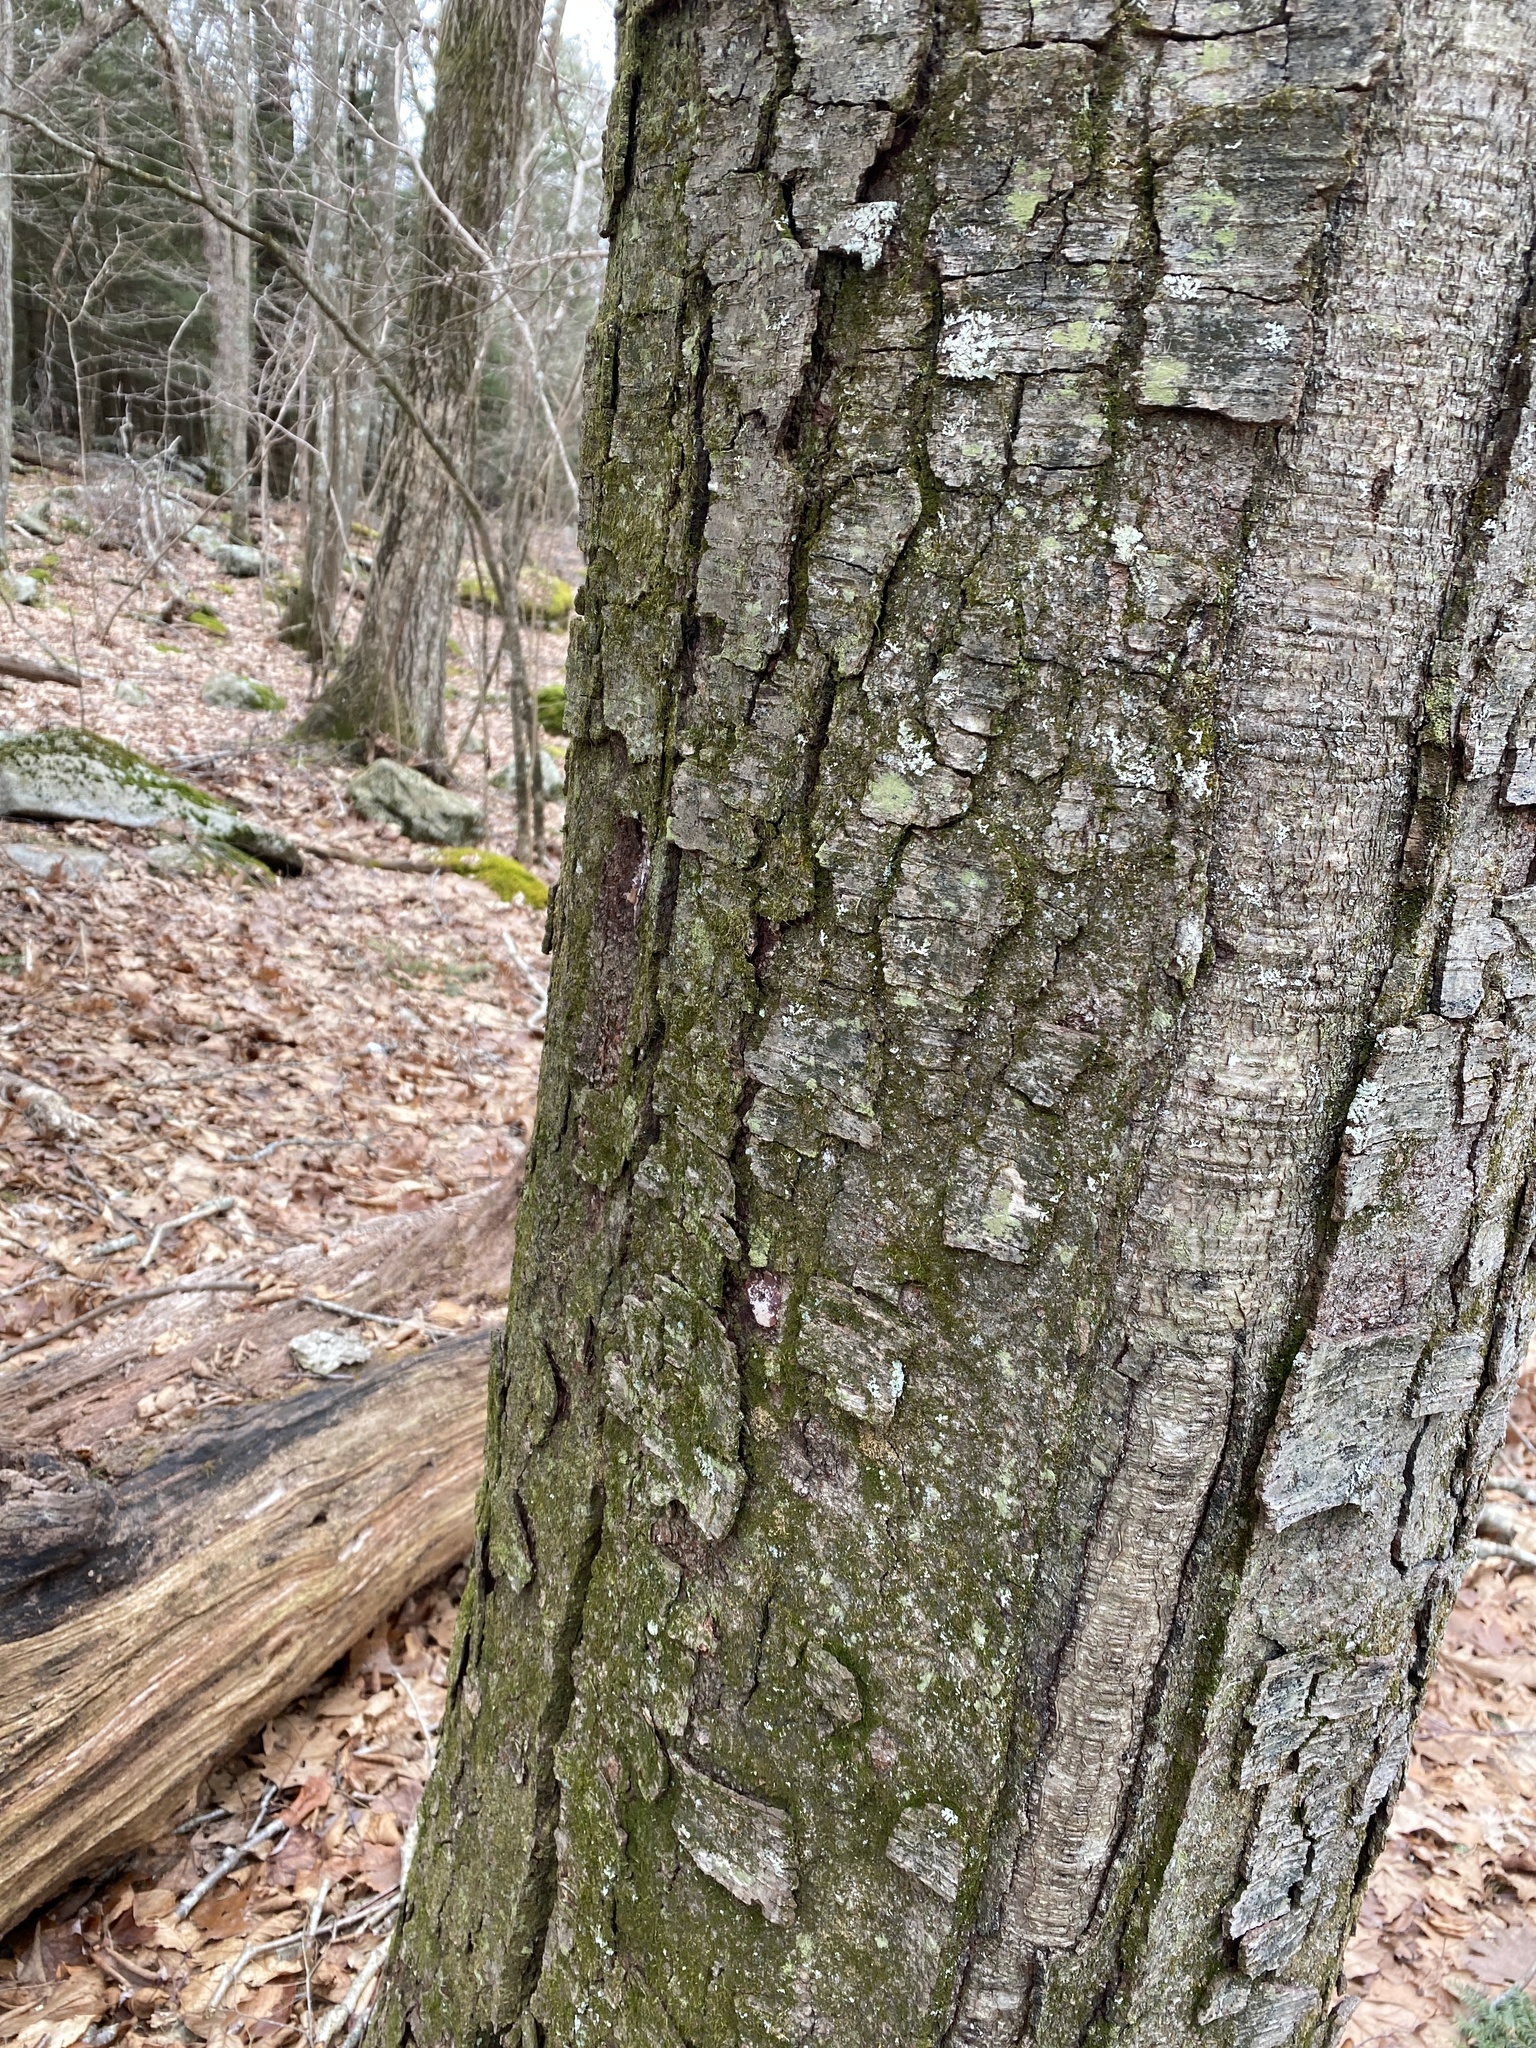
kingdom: Plantae
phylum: Tracheophyta
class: Magnoliopsida
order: Fagales
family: Betulaceae
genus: Betula
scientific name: Betula lenta
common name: Black birch
